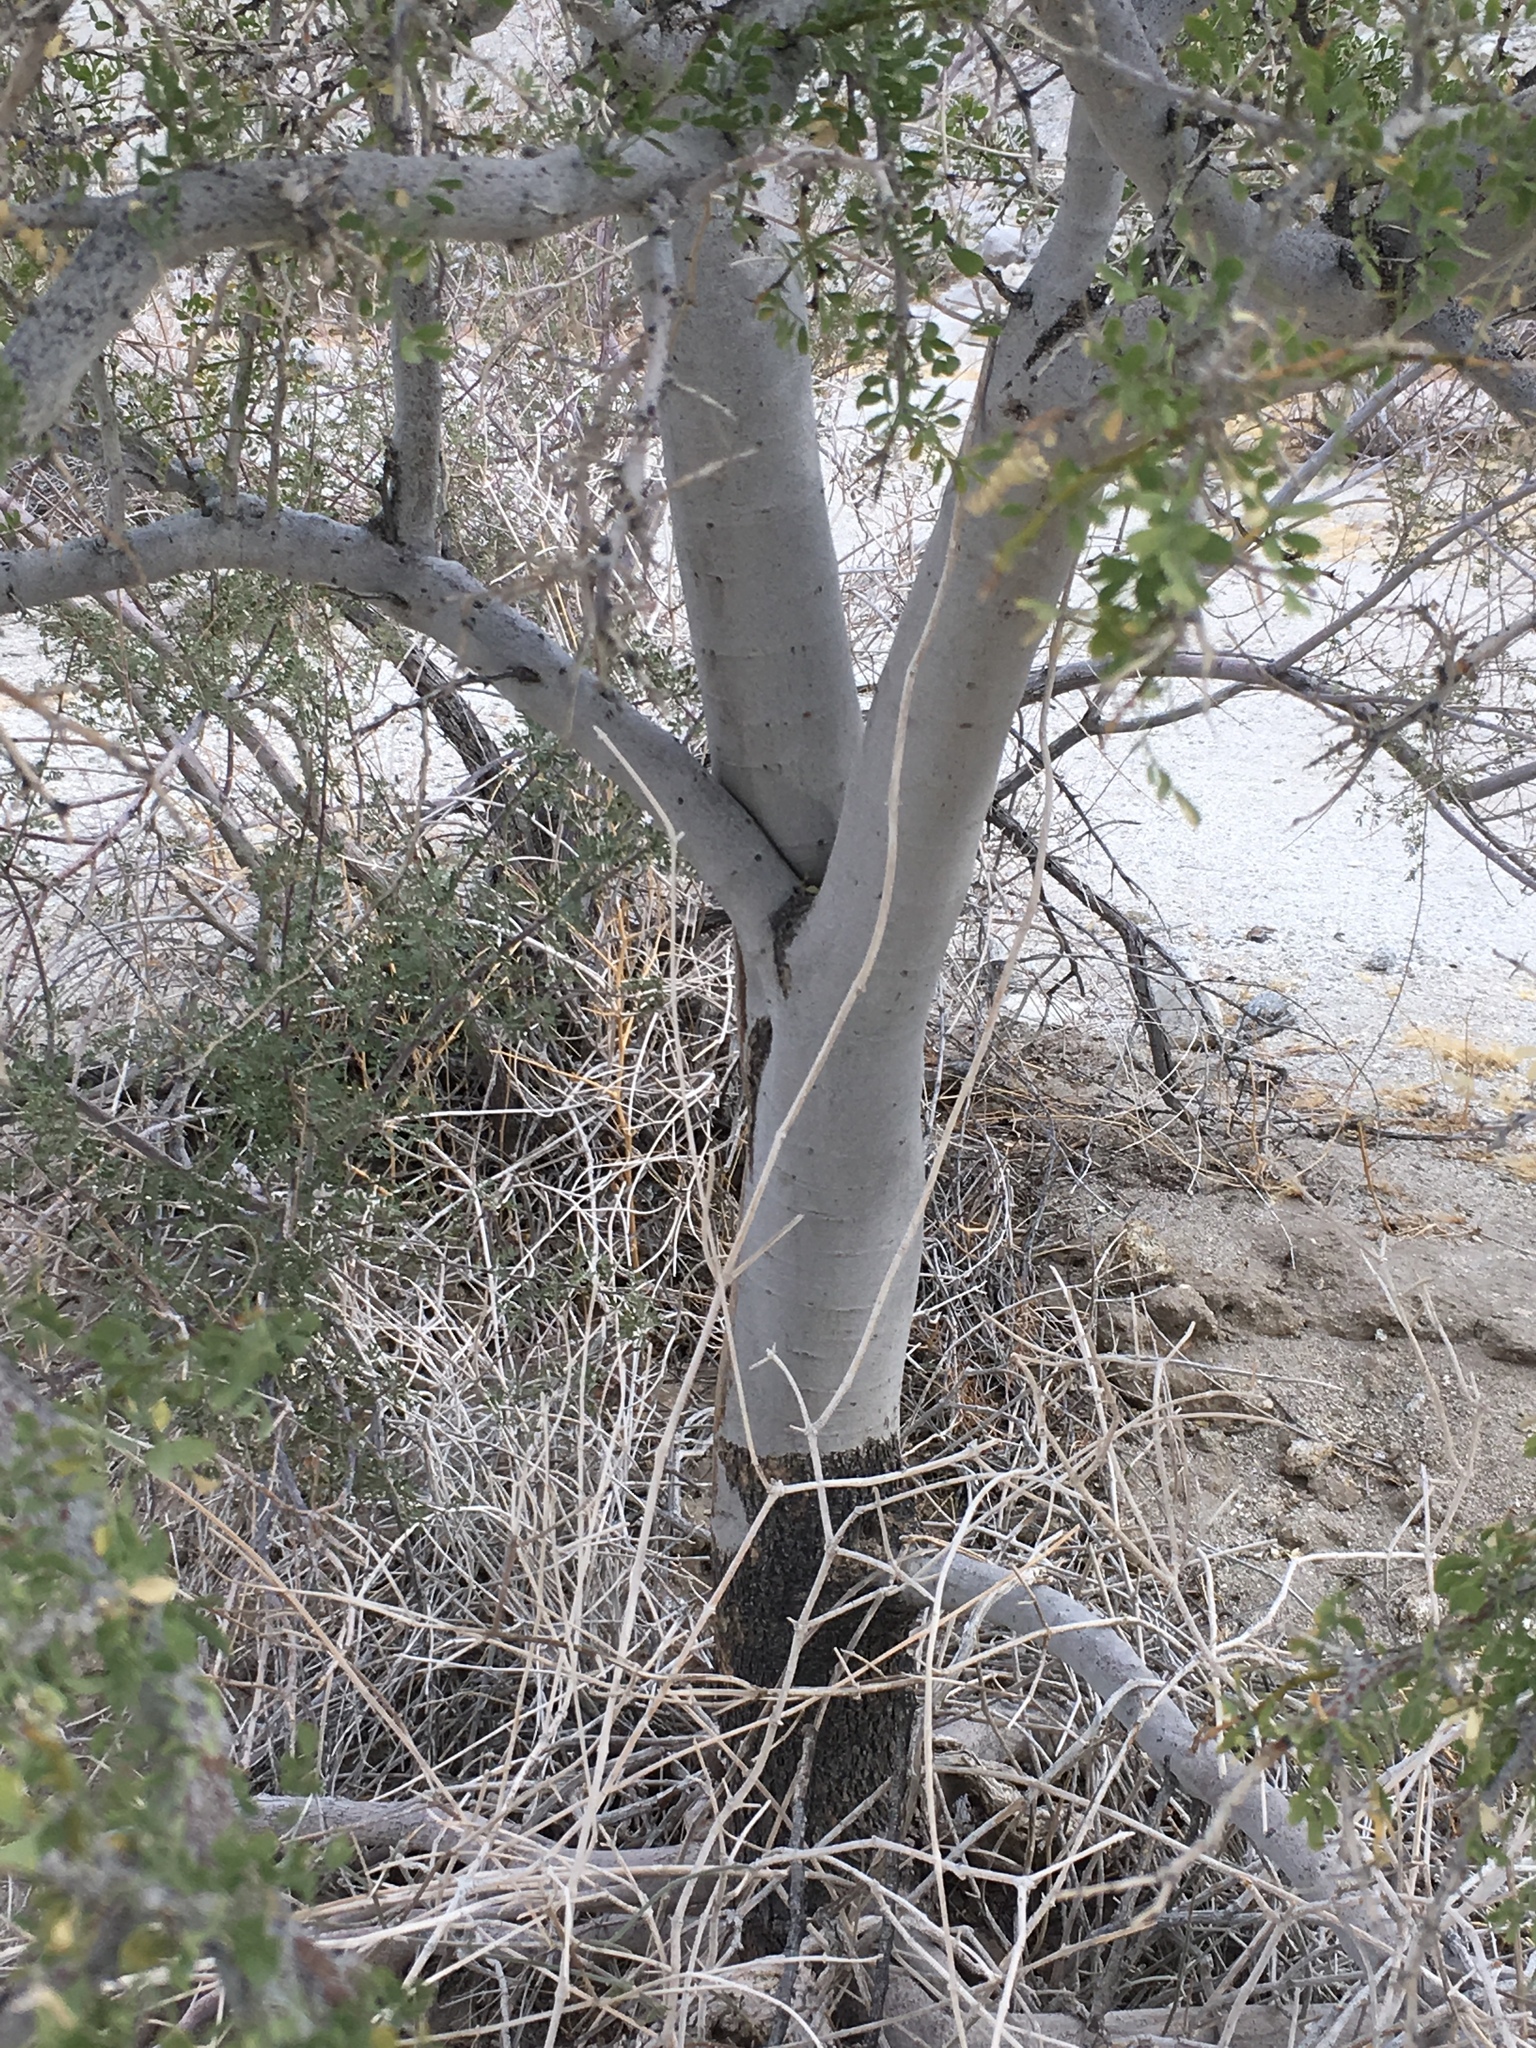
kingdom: Plantae
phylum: Tracheophyta
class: Magnoliopsida
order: Fabales
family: Fabaceae
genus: Olneya
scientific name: Olneya tesota
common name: Desert ironwood
